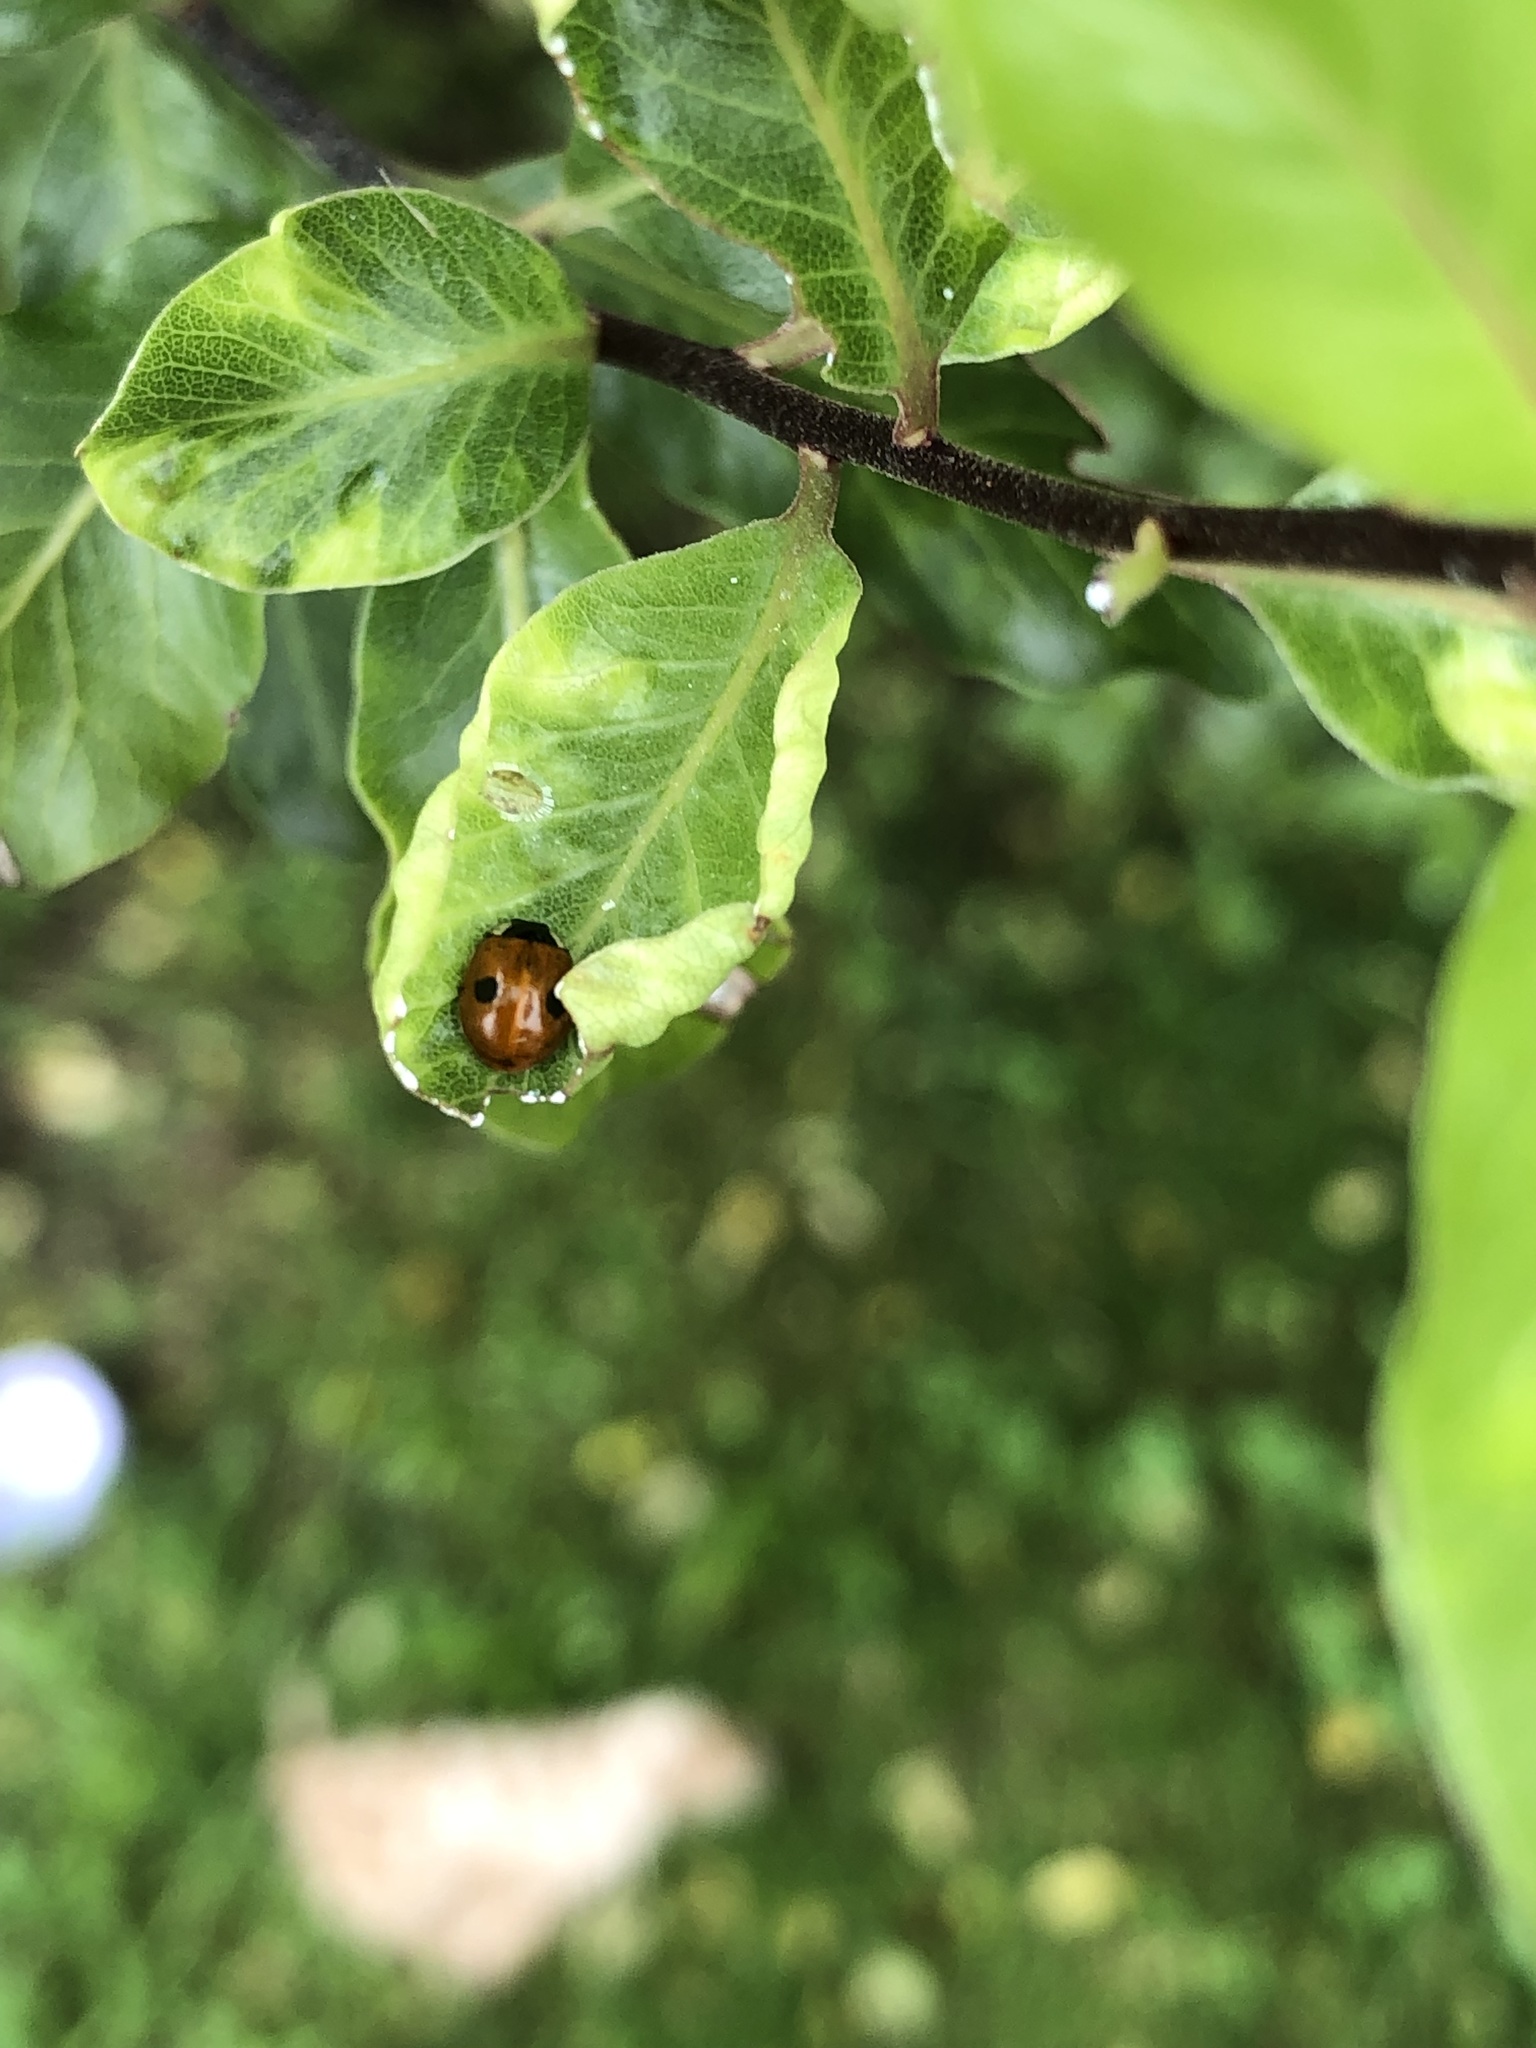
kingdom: Animalia
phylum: Arthropoda
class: Insecta
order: Coleoptera
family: Coccinellidae
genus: Adalia
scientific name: Adalia bipunctata
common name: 2-spot ladybird
